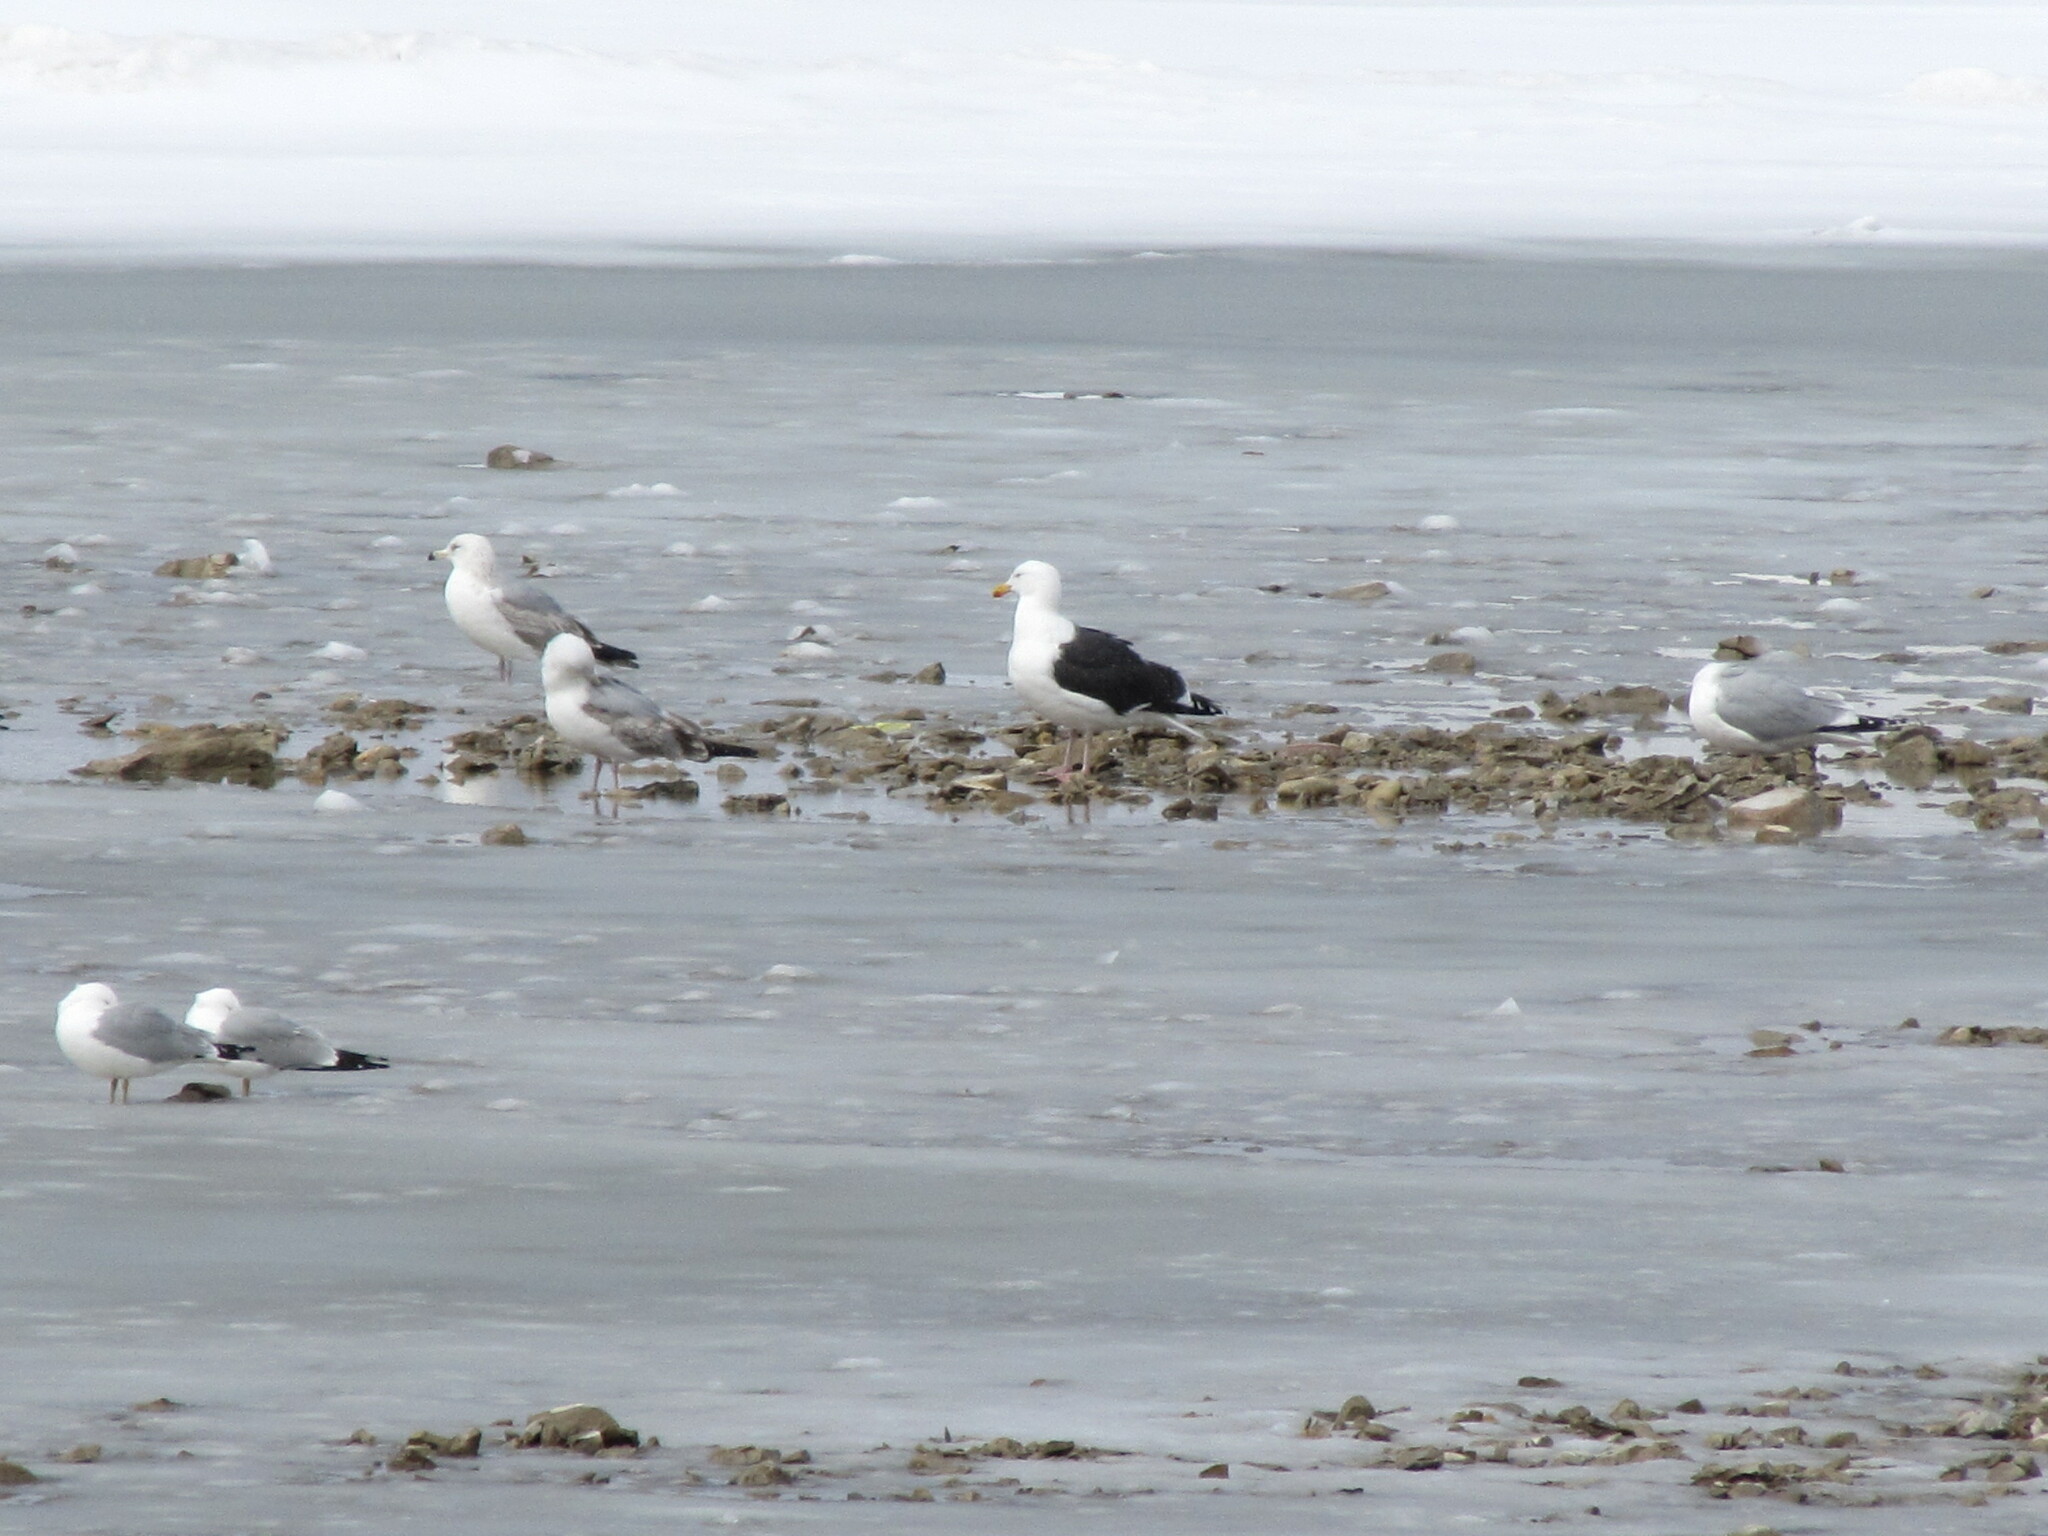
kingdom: Animalia
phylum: Chordata
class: Aves
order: Charadriiformes
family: Laridae
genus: Larus
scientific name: Larus marinus
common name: Great black-backed gull
